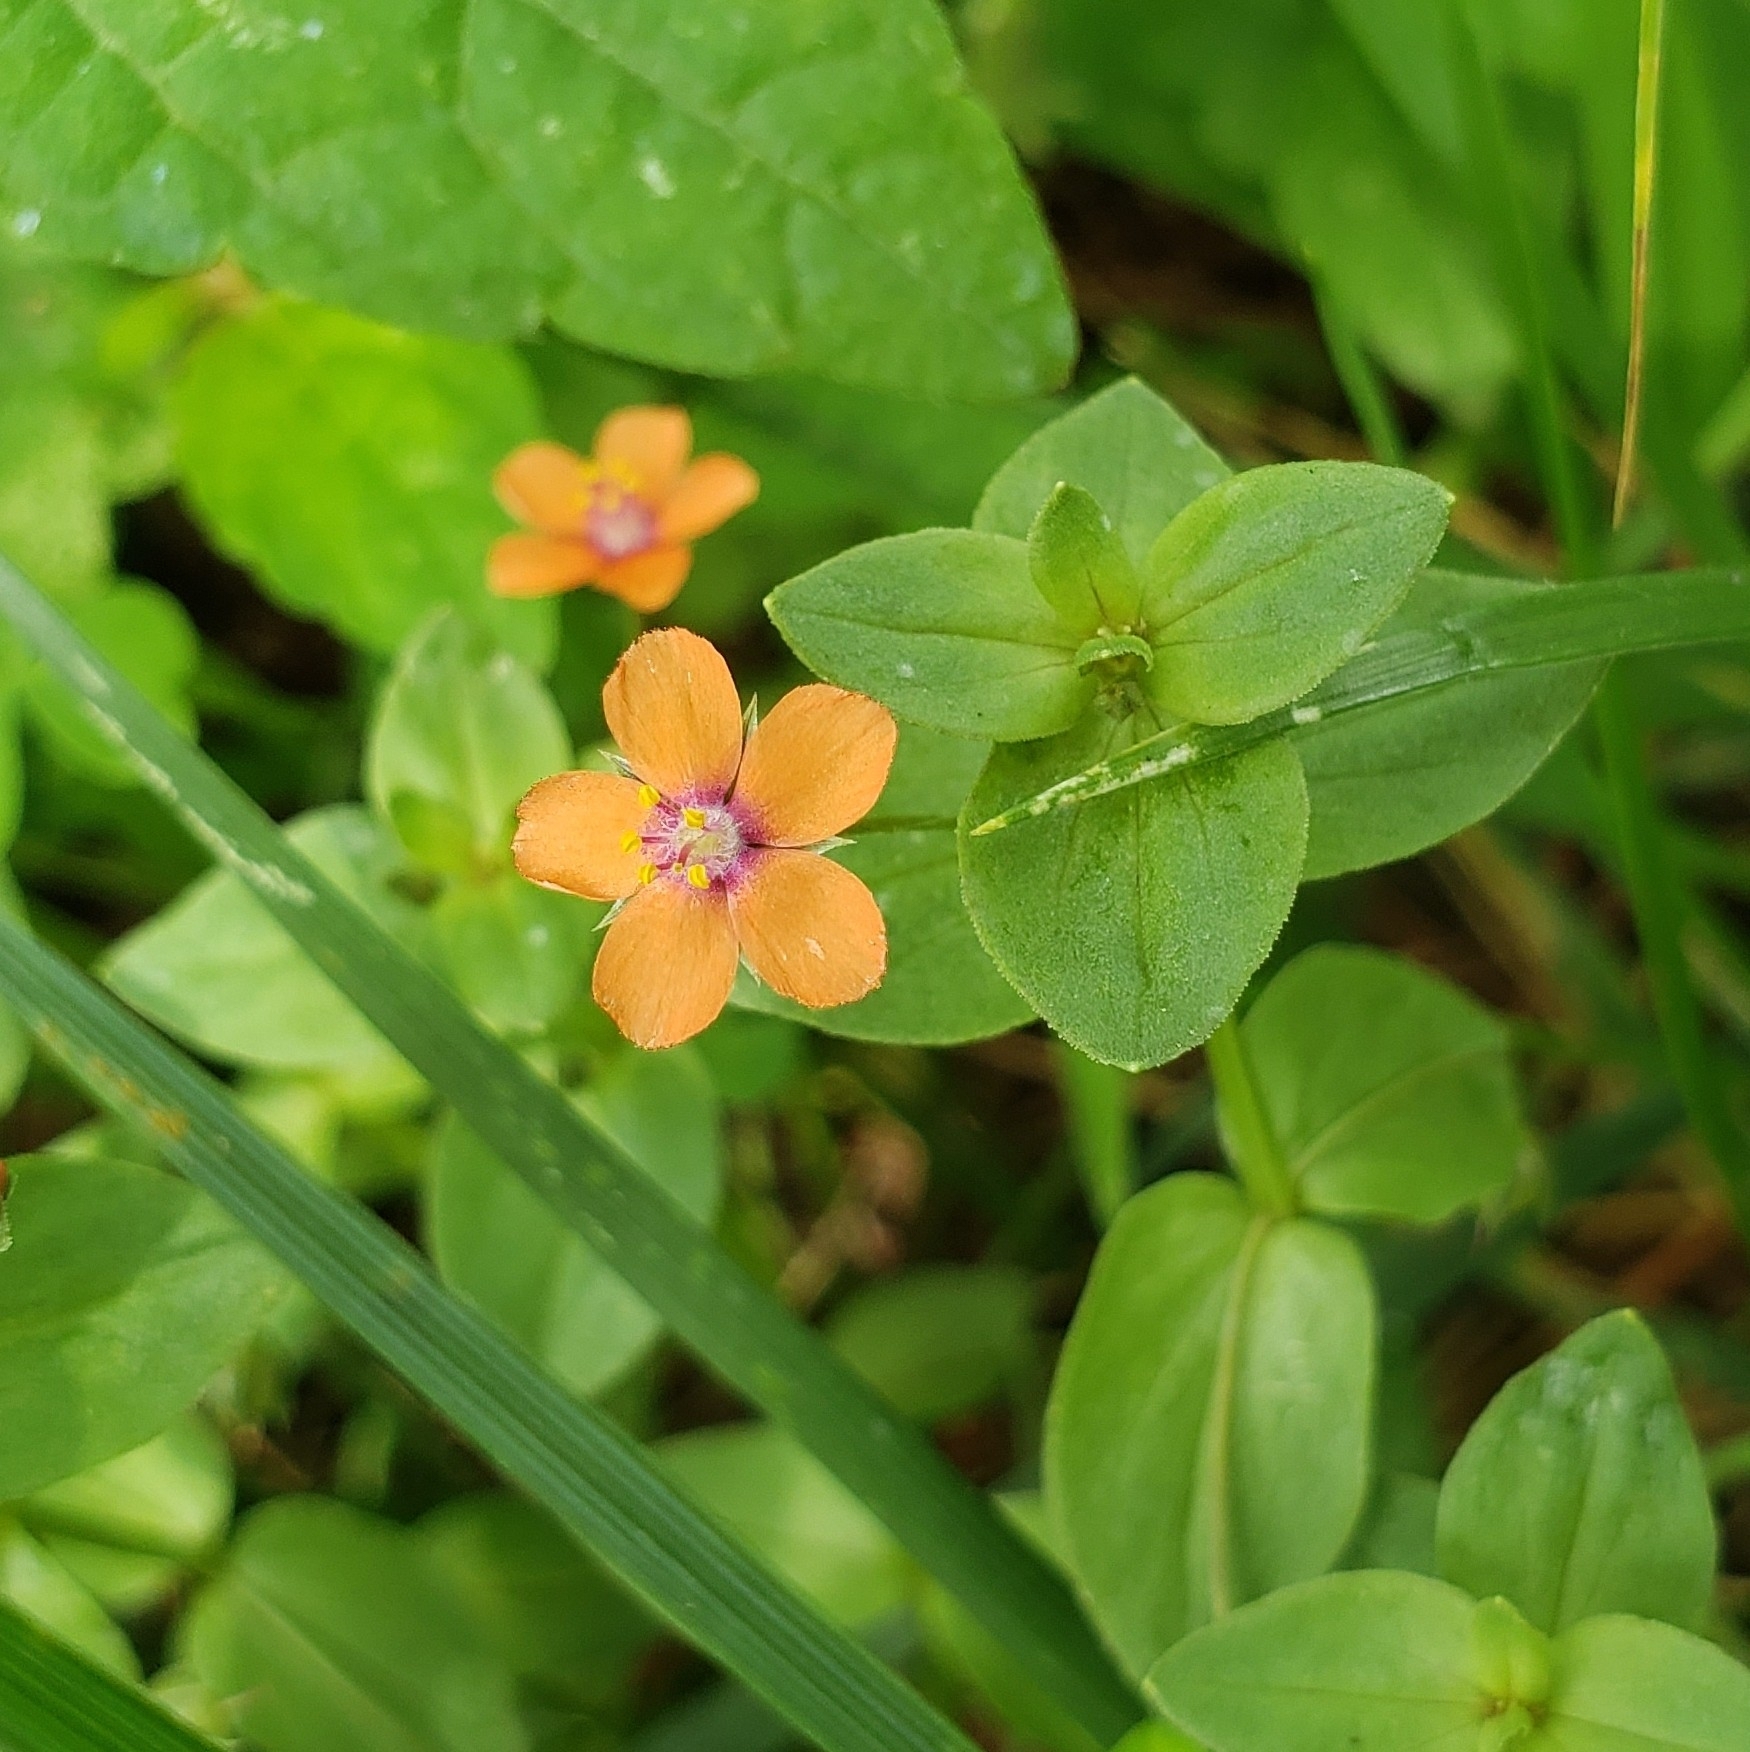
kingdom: Plantae
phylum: Tracheophyta
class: Magnoliopsida
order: Ericales
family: Primulaceae
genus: Lysimachia
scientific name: Lysimachia arvensis
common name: Scarlet pimpernel
